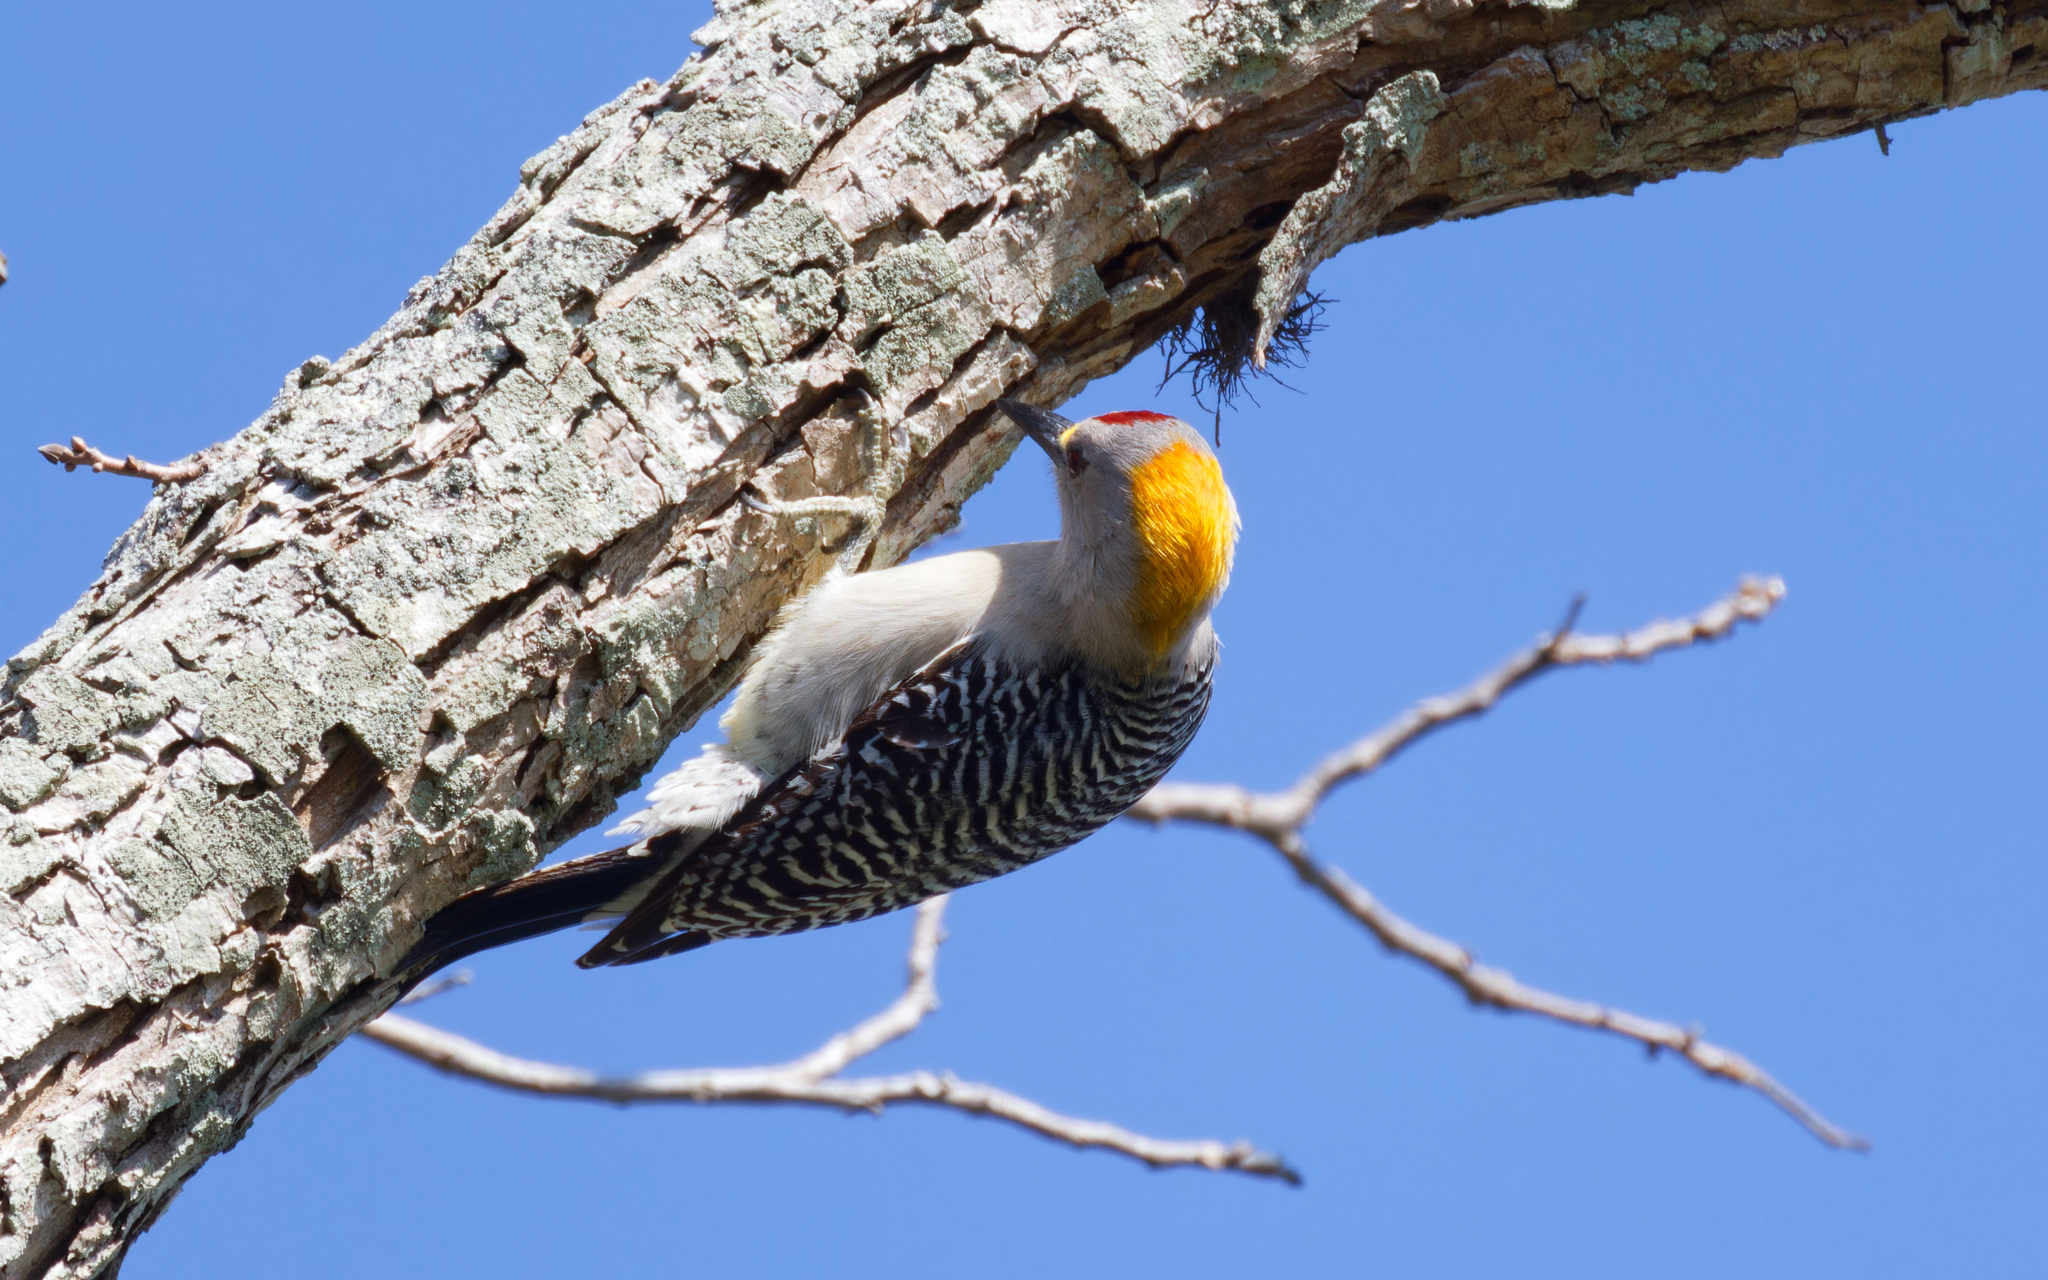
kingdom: Animalia
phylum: Chordata
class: Aves
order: Piciformes
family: Picidae
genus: Melanerpes
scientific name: Melanerpes aurifrons
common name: Golden-fronted woodpecker
